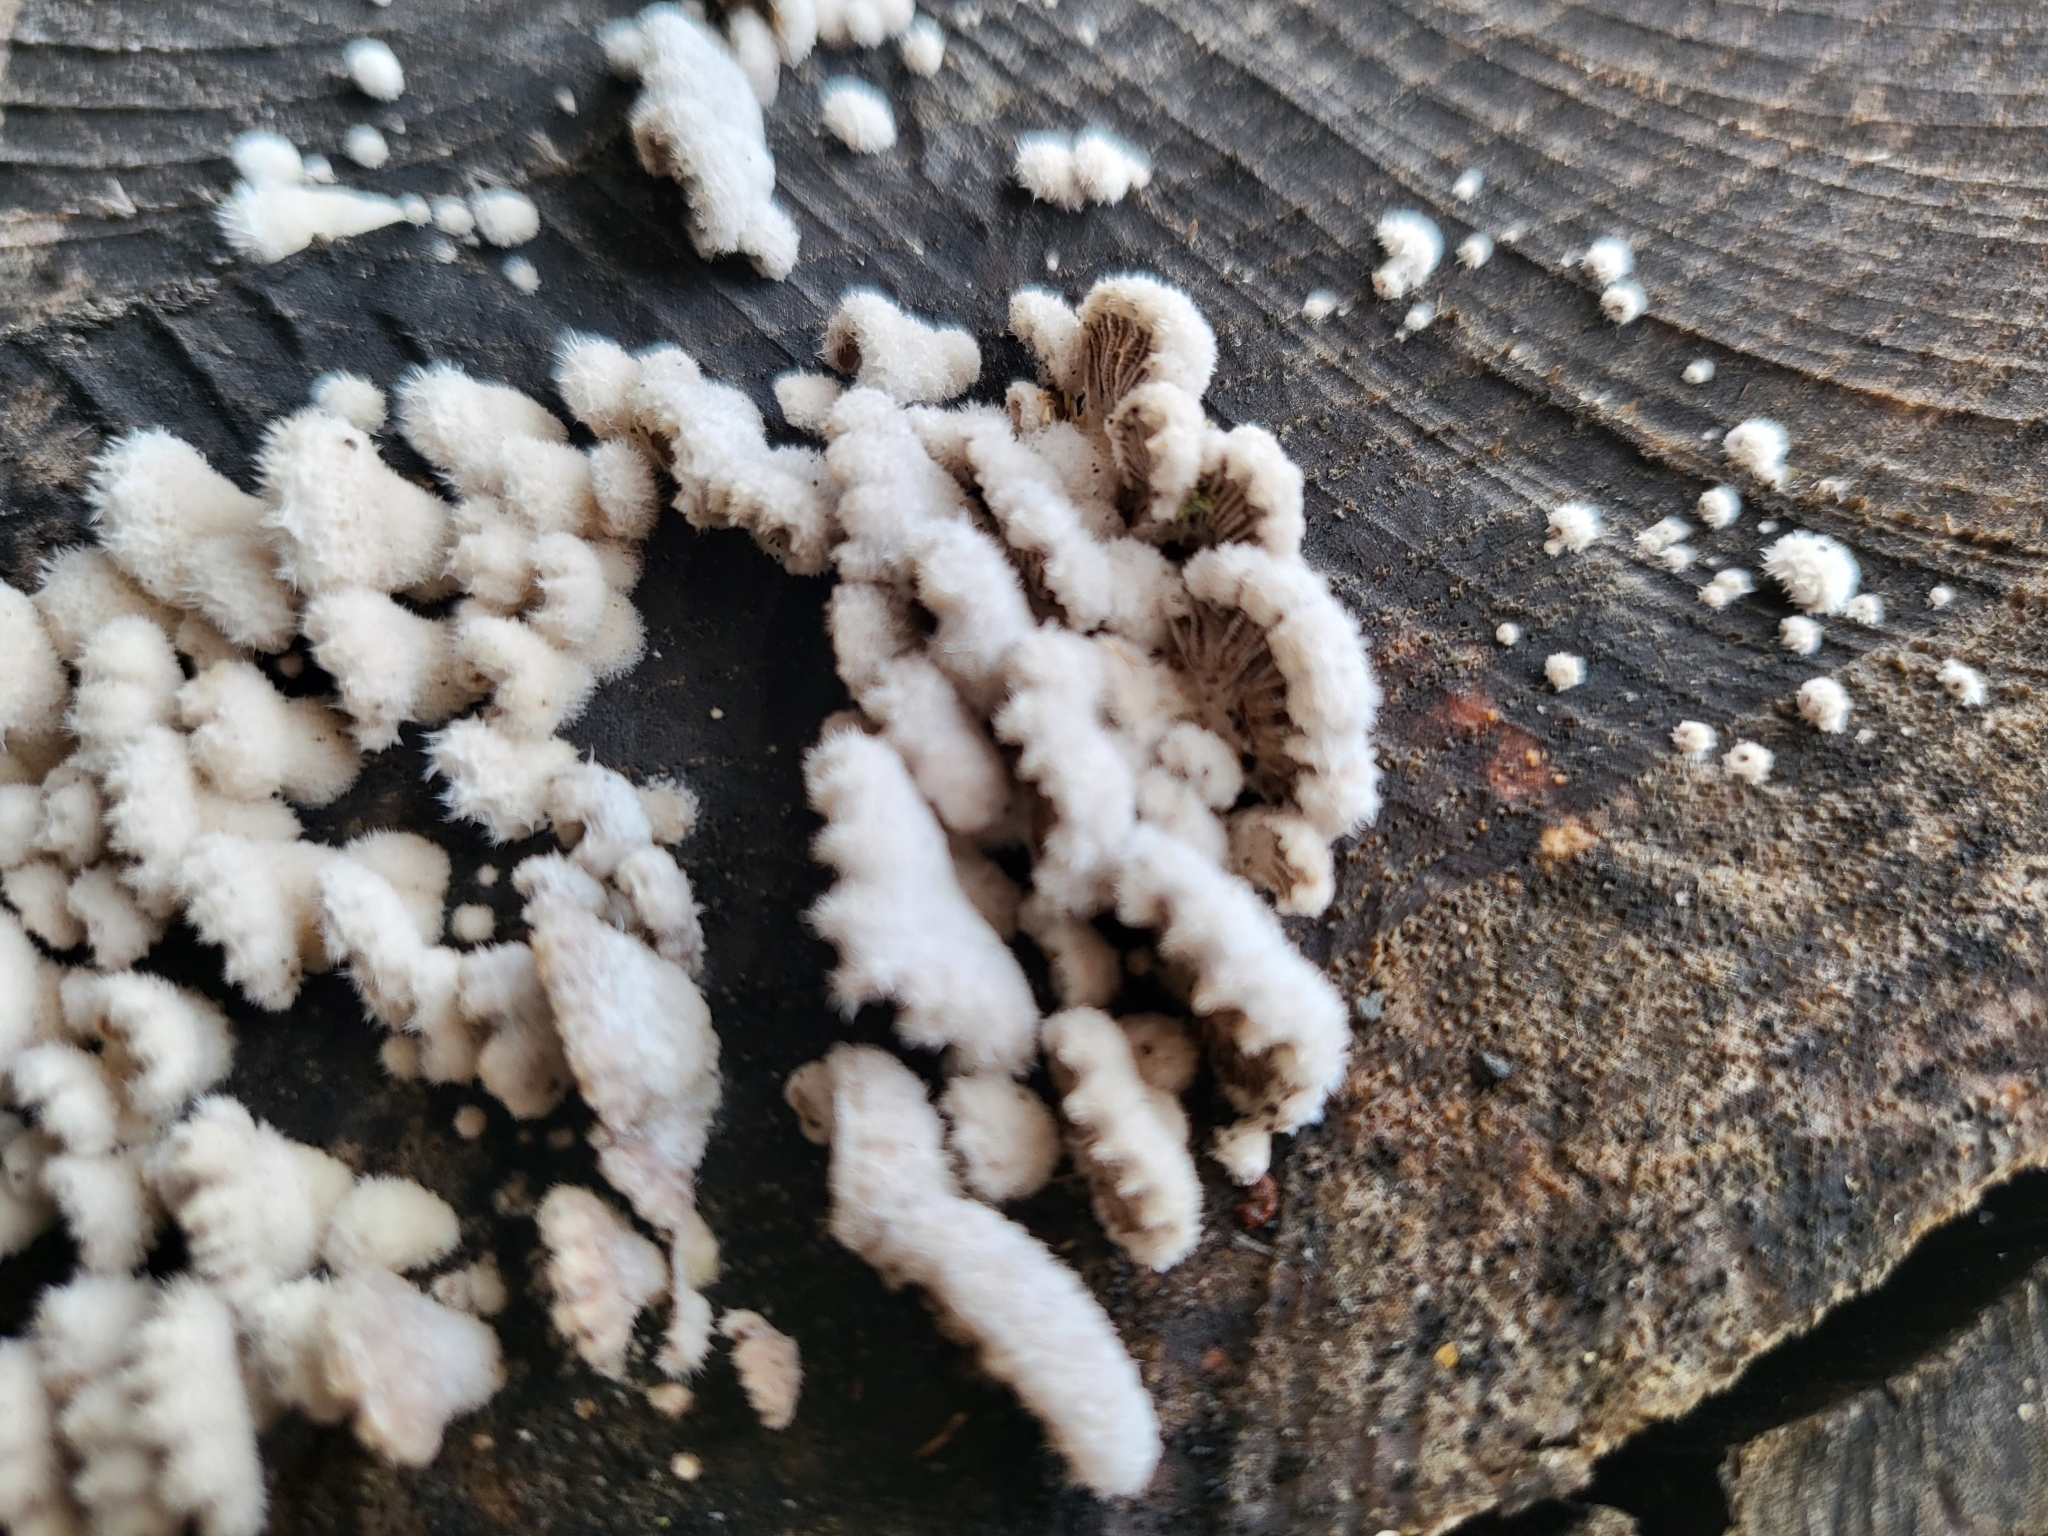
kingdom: Fungi
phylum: Basidiomycota
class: Agaricomycetes
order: Agaricales
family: Schizophyllaceae
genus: Schizophyllum
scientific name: Schizophyllum commune
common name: Common porecrust
